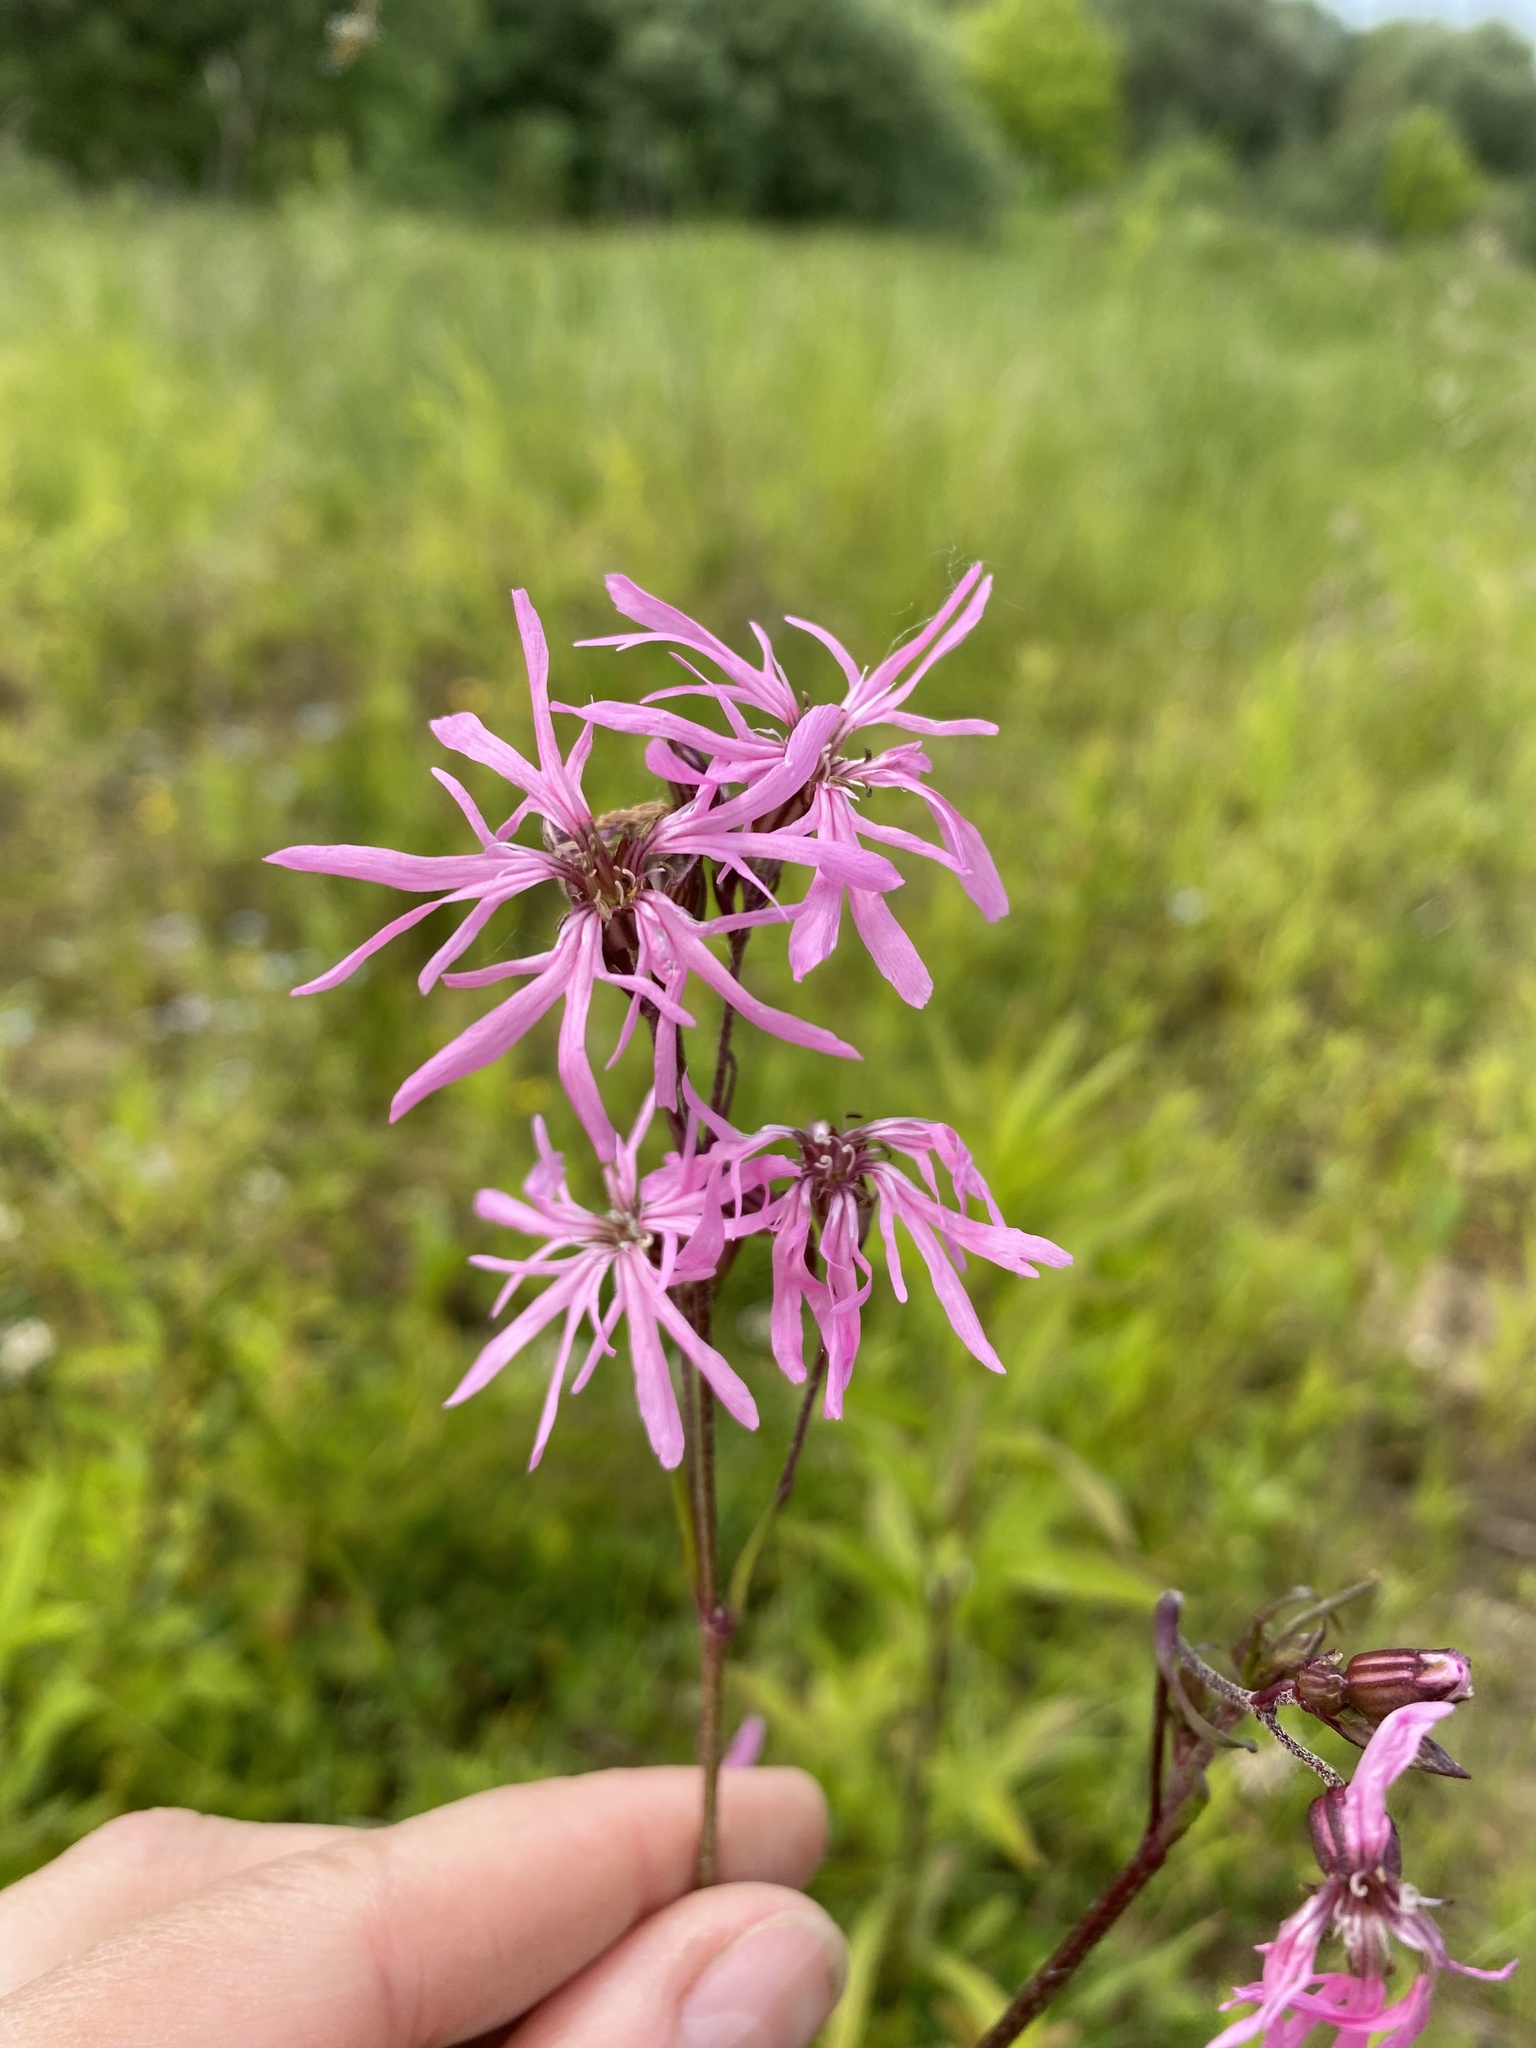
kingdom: Plantae
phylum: Tracheophyta
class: Magnoliopsida
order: Caryophyllales
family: Caryophyllaceae
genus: Silene
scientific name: Silene flos-cuculi
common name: Ragged-robin
